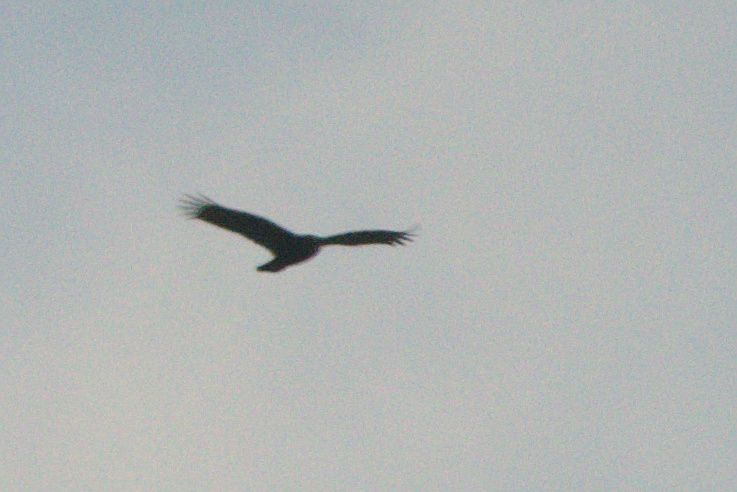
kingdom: Animalia
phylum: Chordata
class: Aves
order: Accipitriformes
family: Cathartidae
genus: Cathartes
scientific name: Cathartes aura
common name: Turkey vulture
